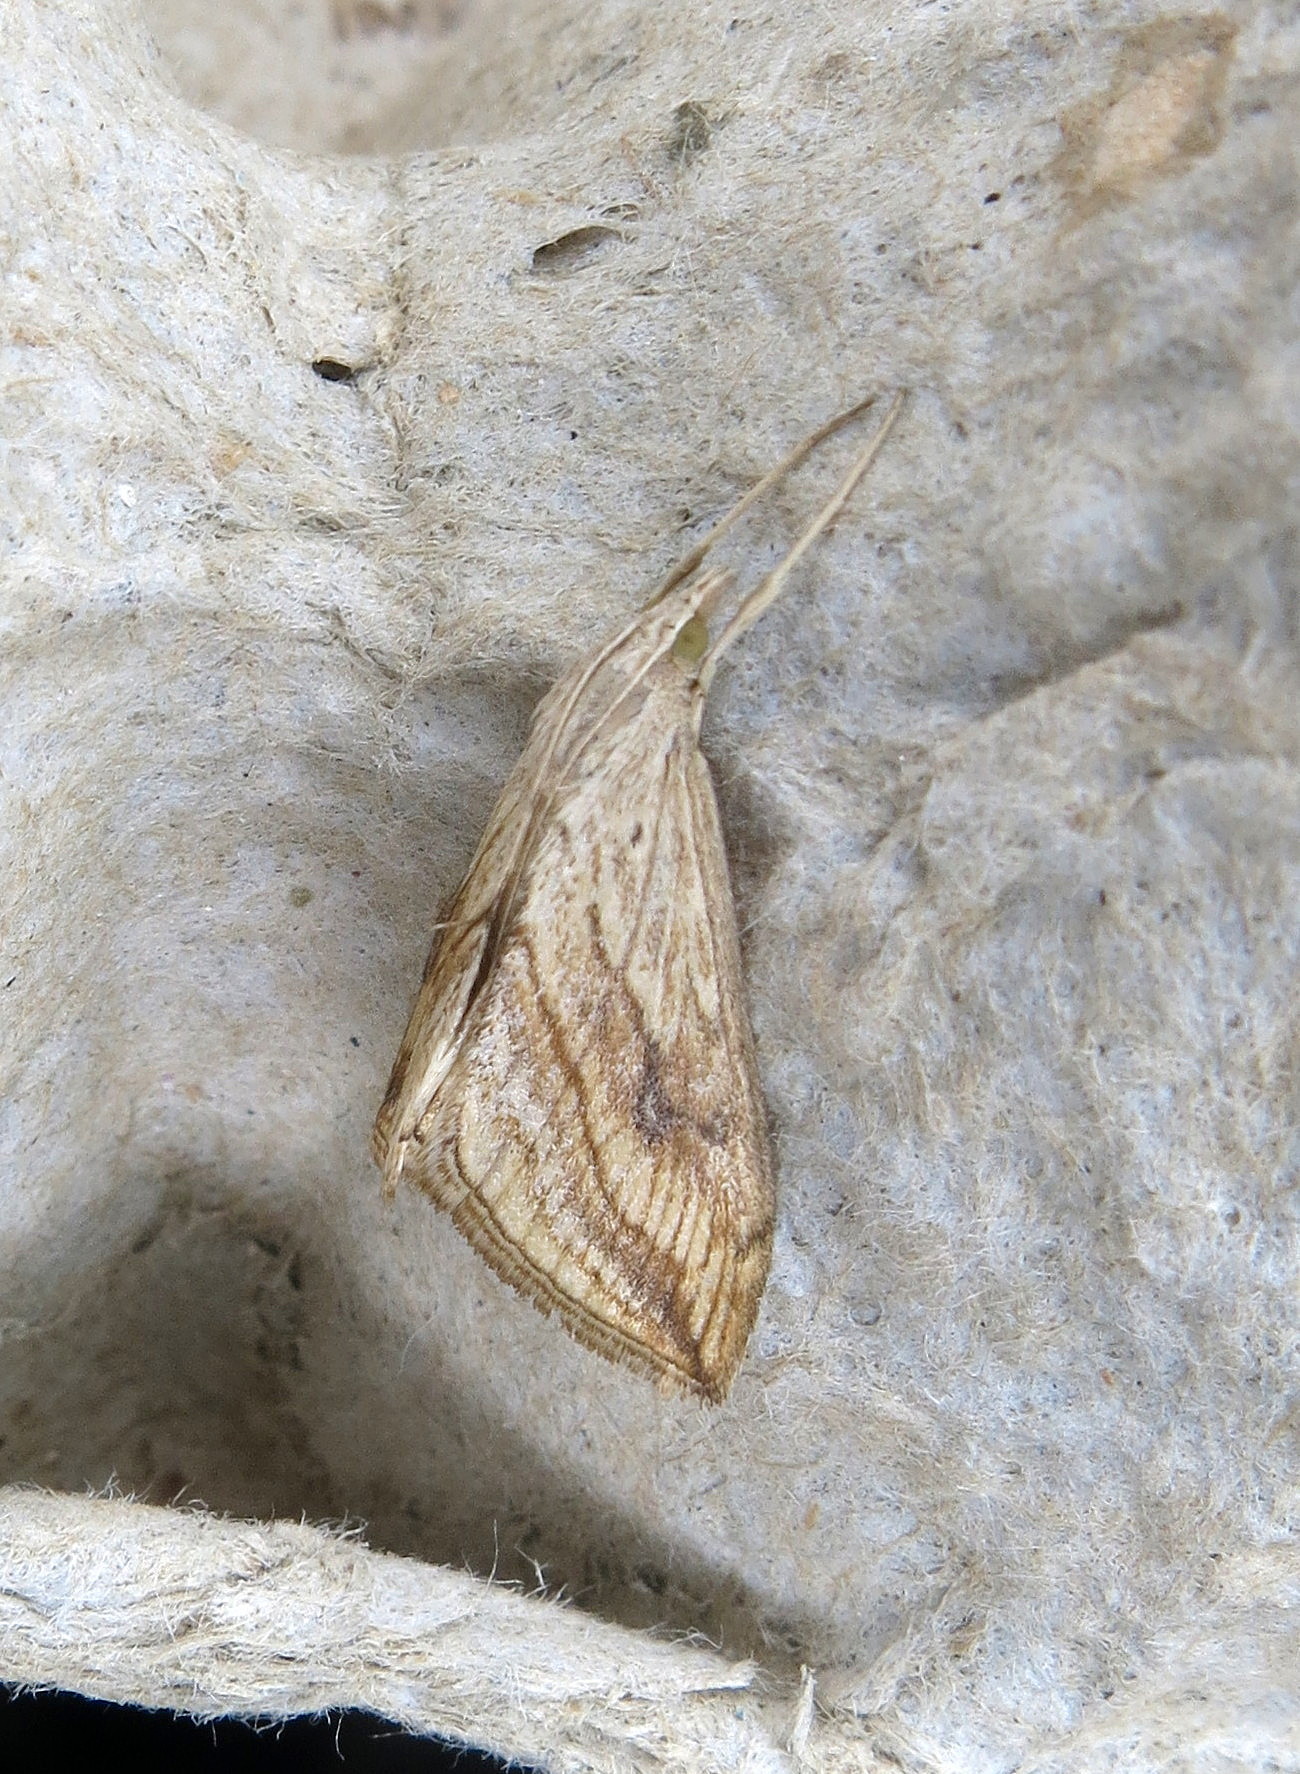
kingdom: Animalia
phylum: Arthropoda
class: Insecta
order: Lepidoptera
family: Crambidae
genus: Evergestis
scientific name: Evergestis forficalis
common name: Garden pebble
